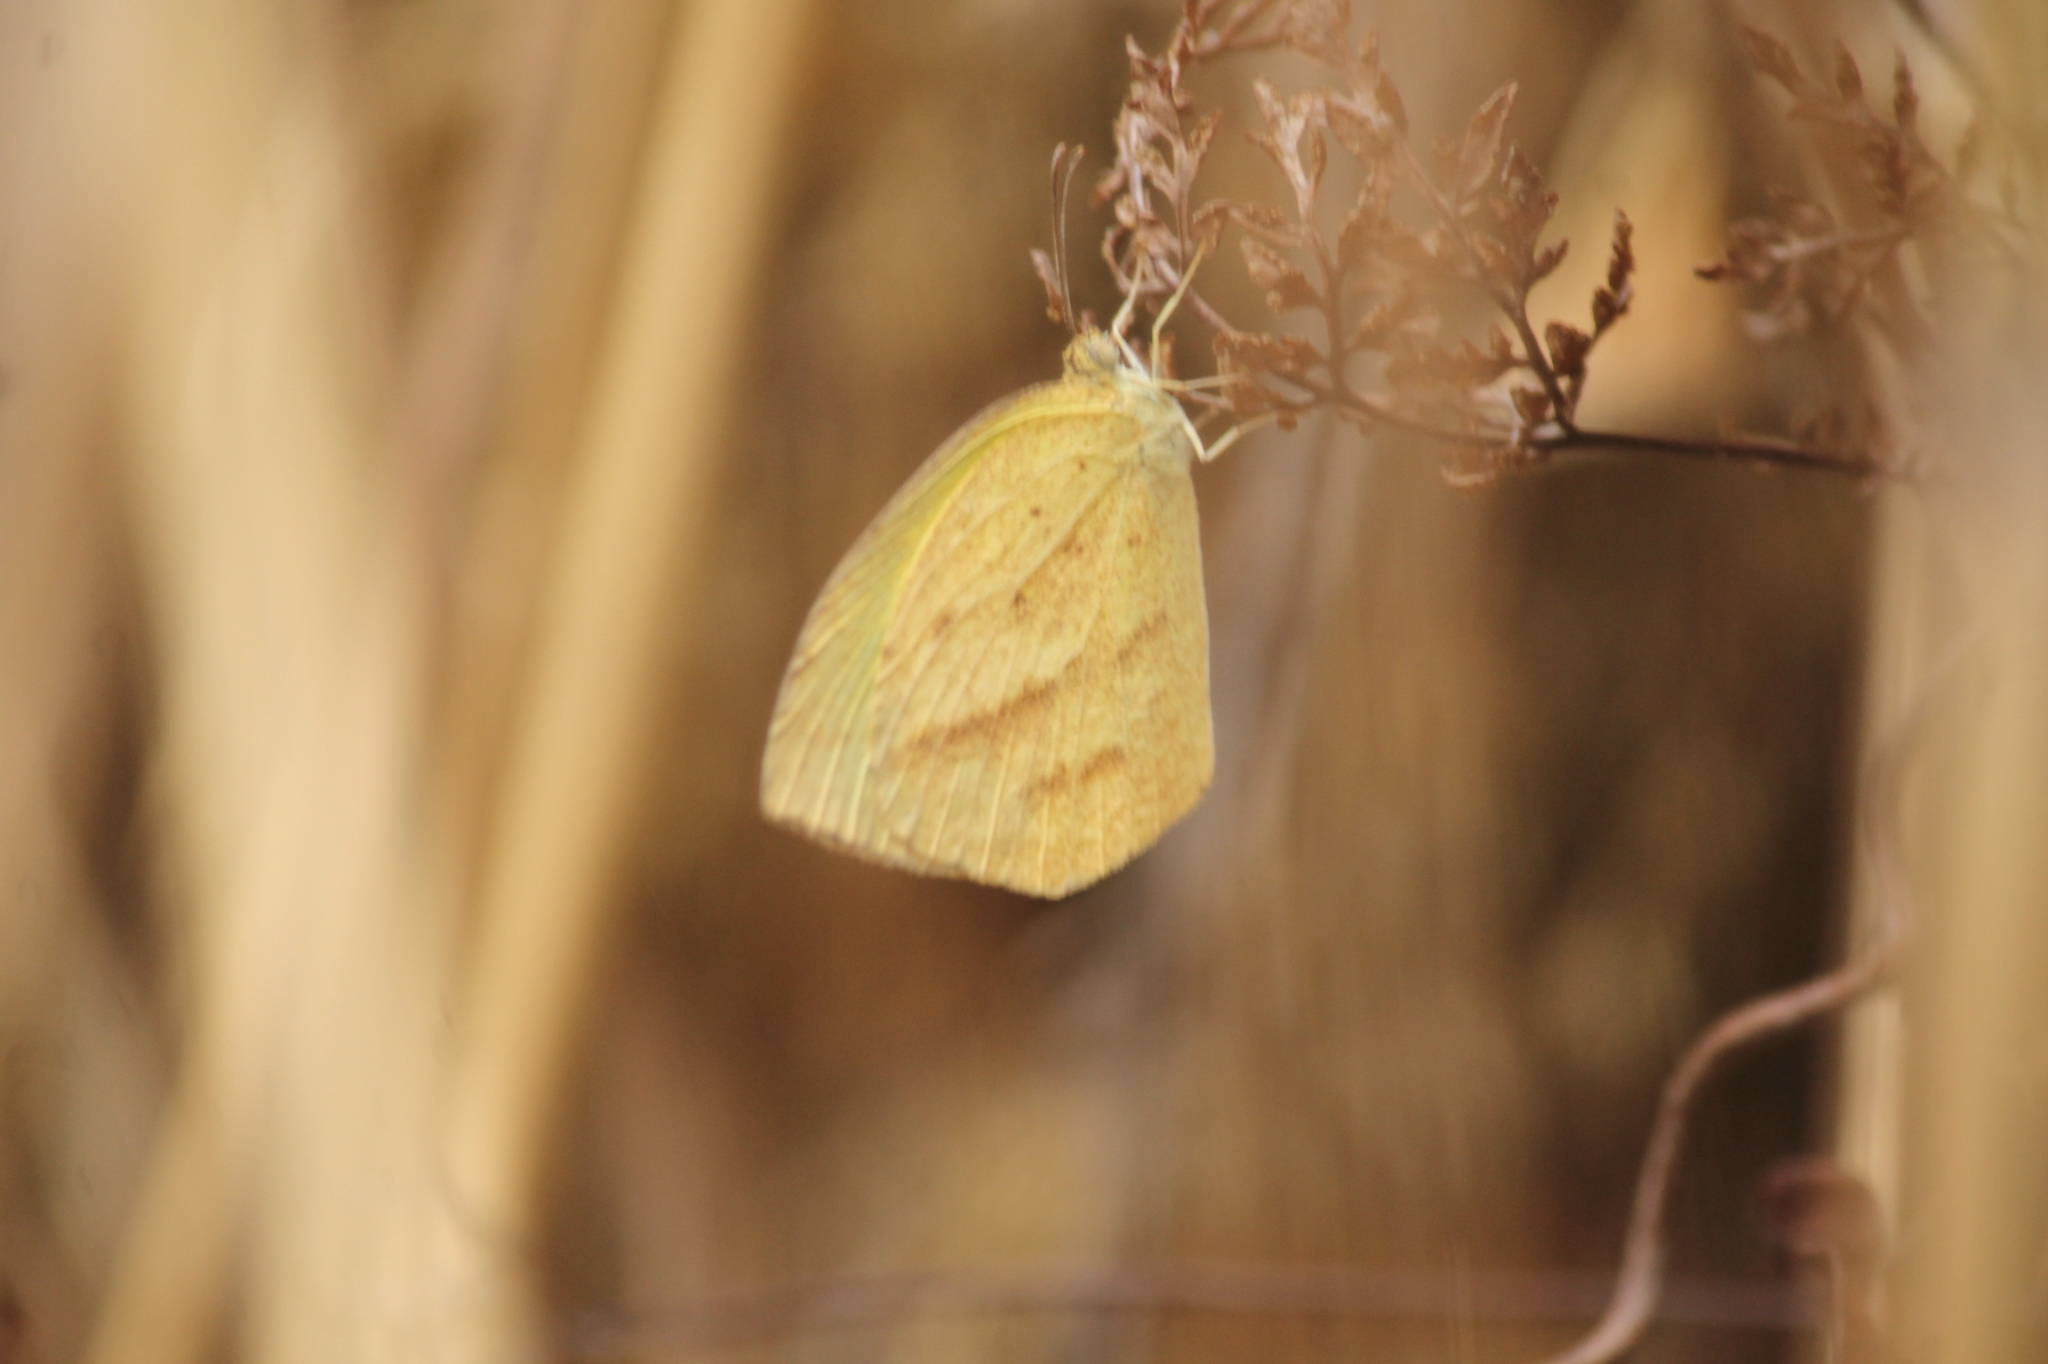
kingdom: Animalia
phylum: Arthropoda
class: Insecta
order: Lepidoptera
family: Pieridae
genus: Eurema
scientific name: Eurema laeta
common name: Spotless grass yellow
